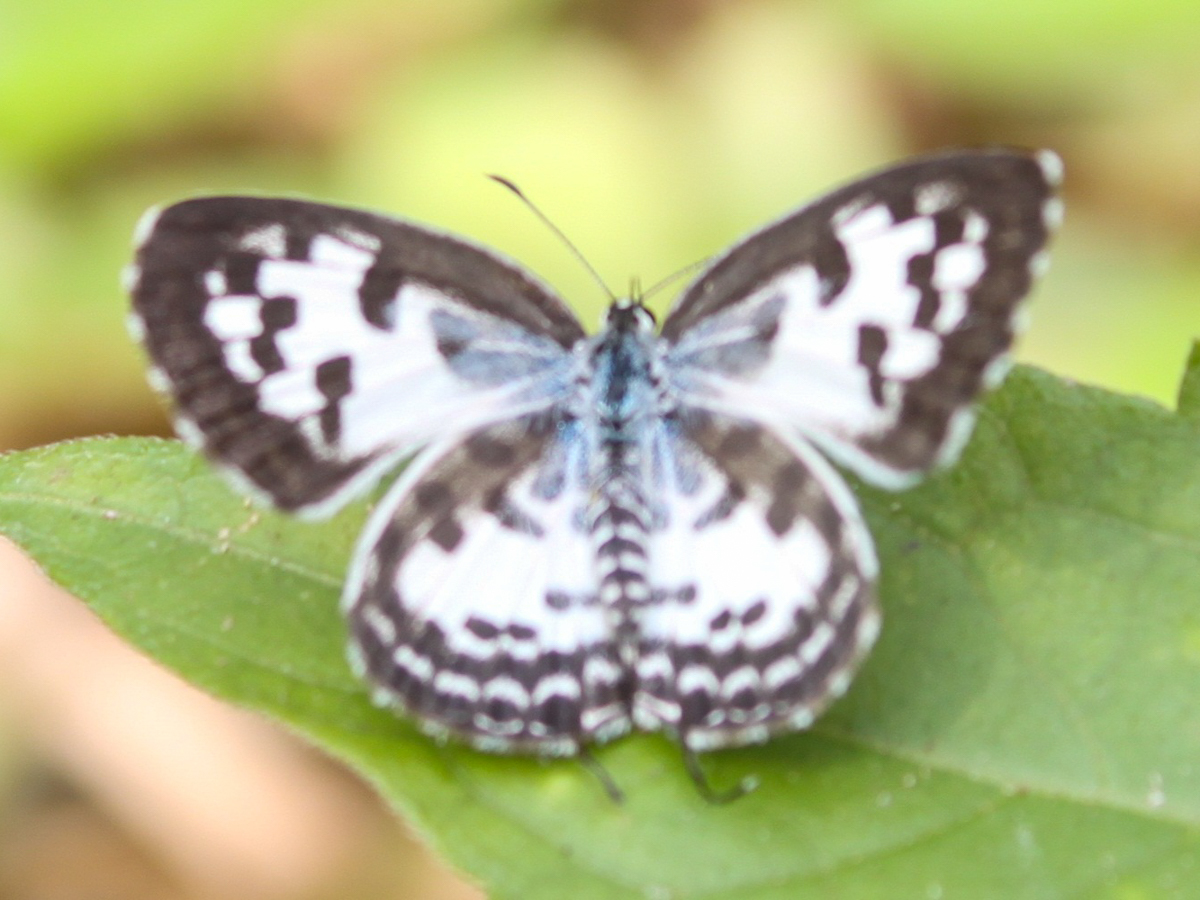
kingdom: Animalia
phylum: Arthropoda
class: Insecta
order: Lepidoptera
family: Lycaenidae
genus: Castalius
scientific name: Castalius rosimon
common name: Common pierrot
